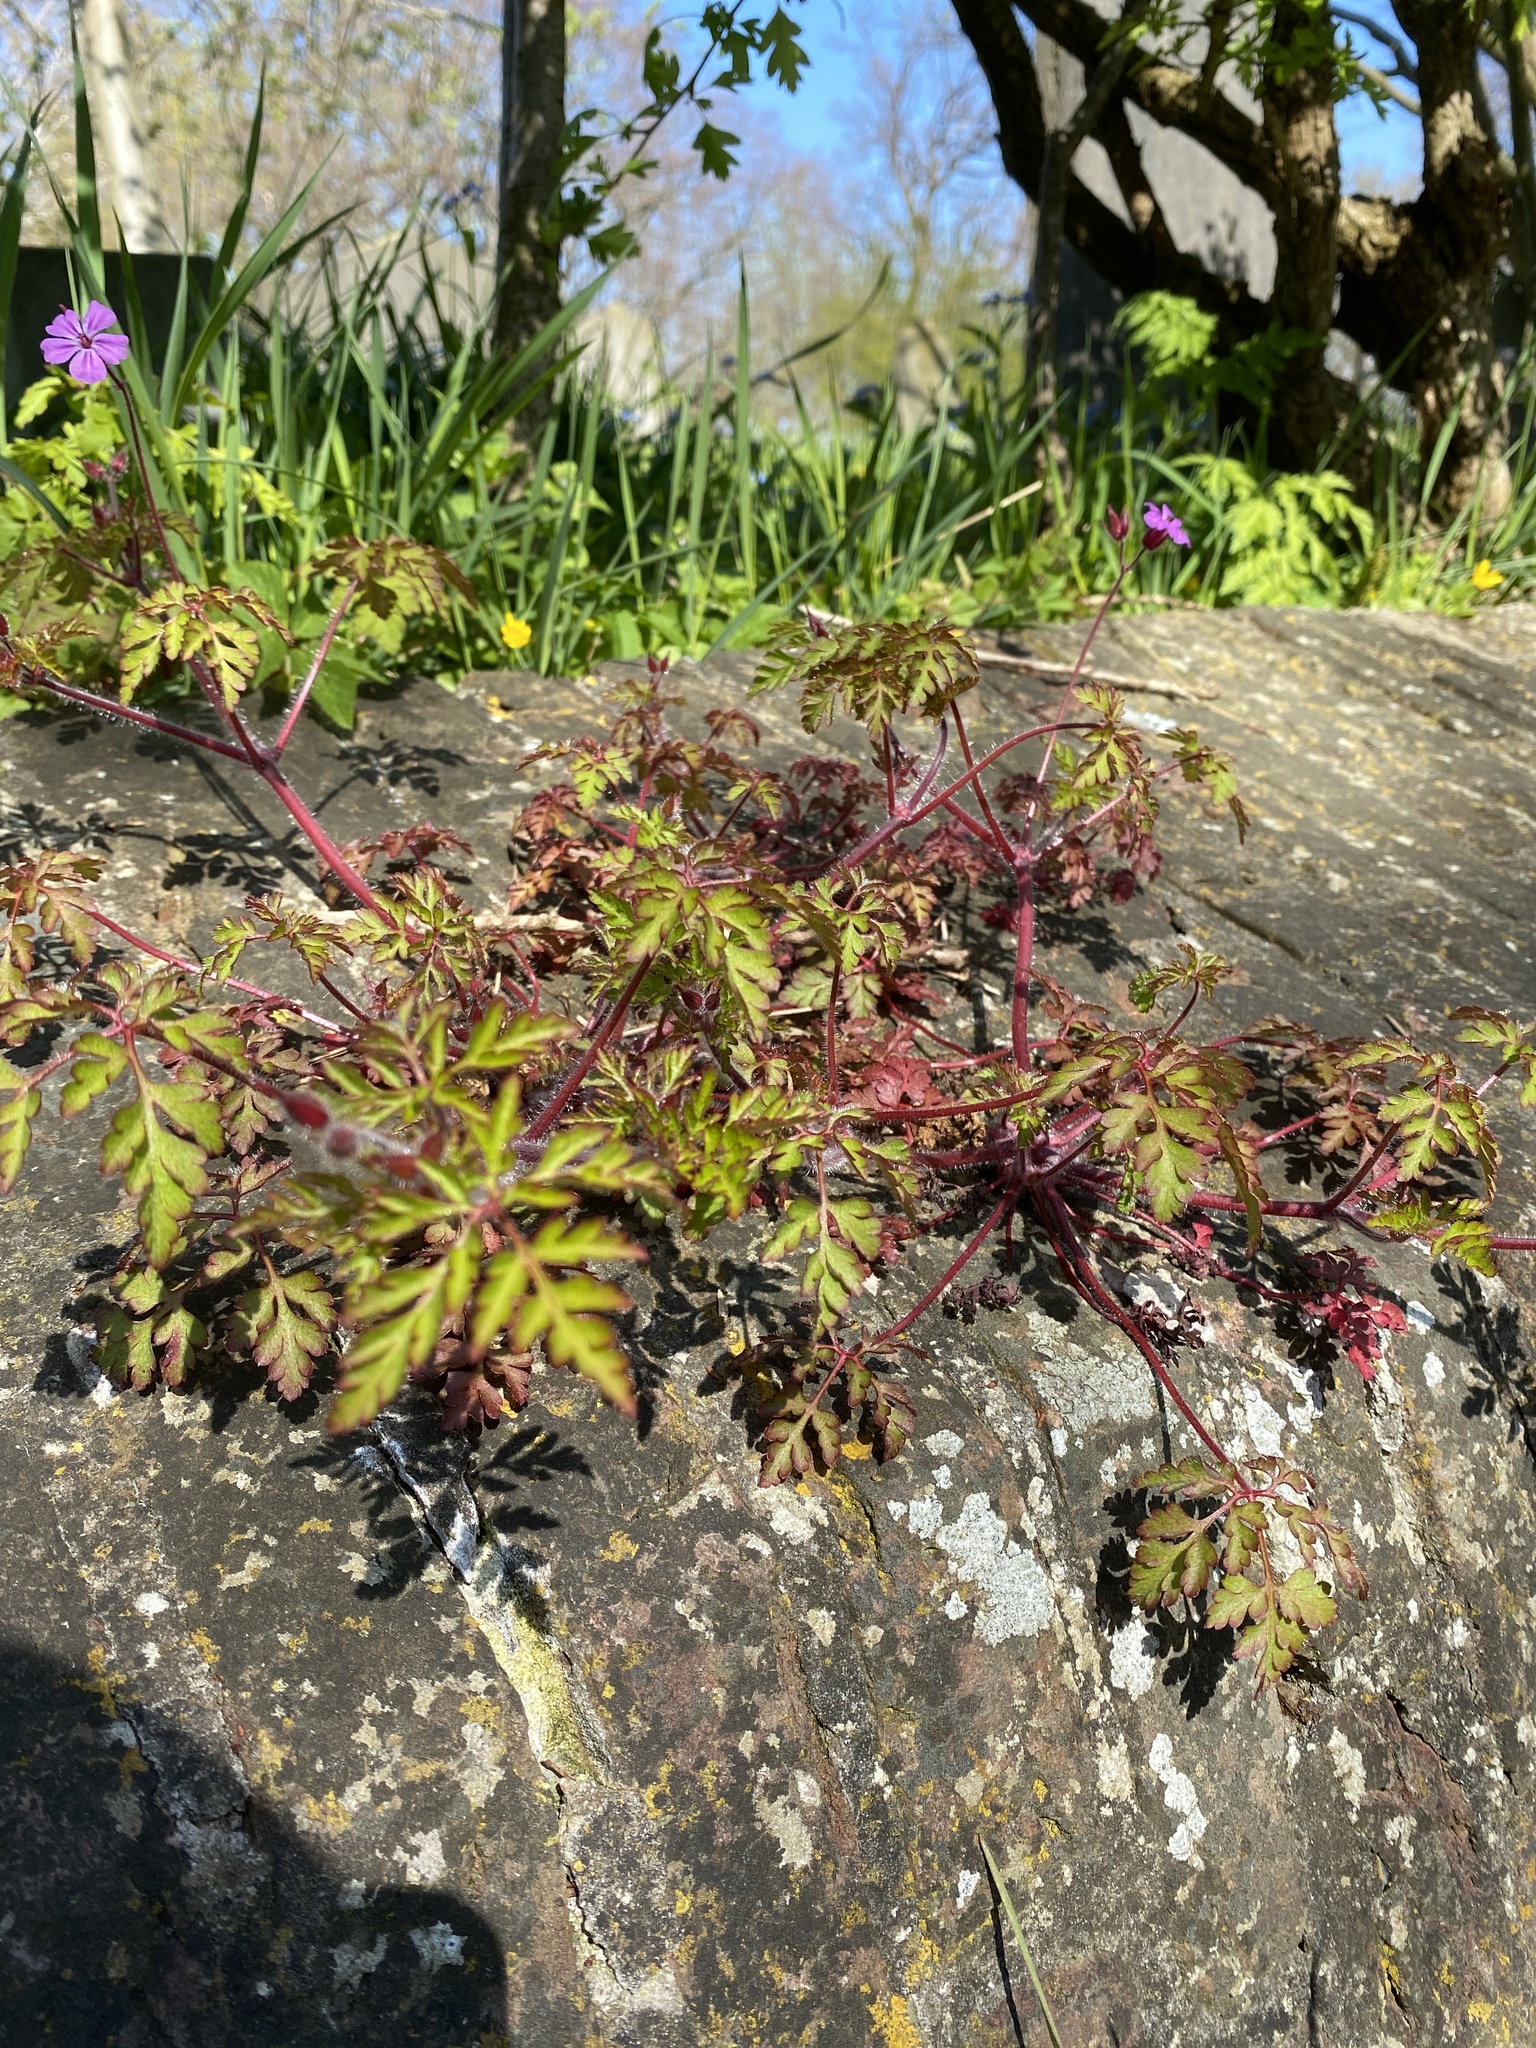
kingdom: Plantae
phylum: Tracheophyta
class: Magnoliopsida
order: Geraniales
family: Geraniaceae
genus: Geranium
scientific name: Geranium robertianum
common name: Herb-robert
